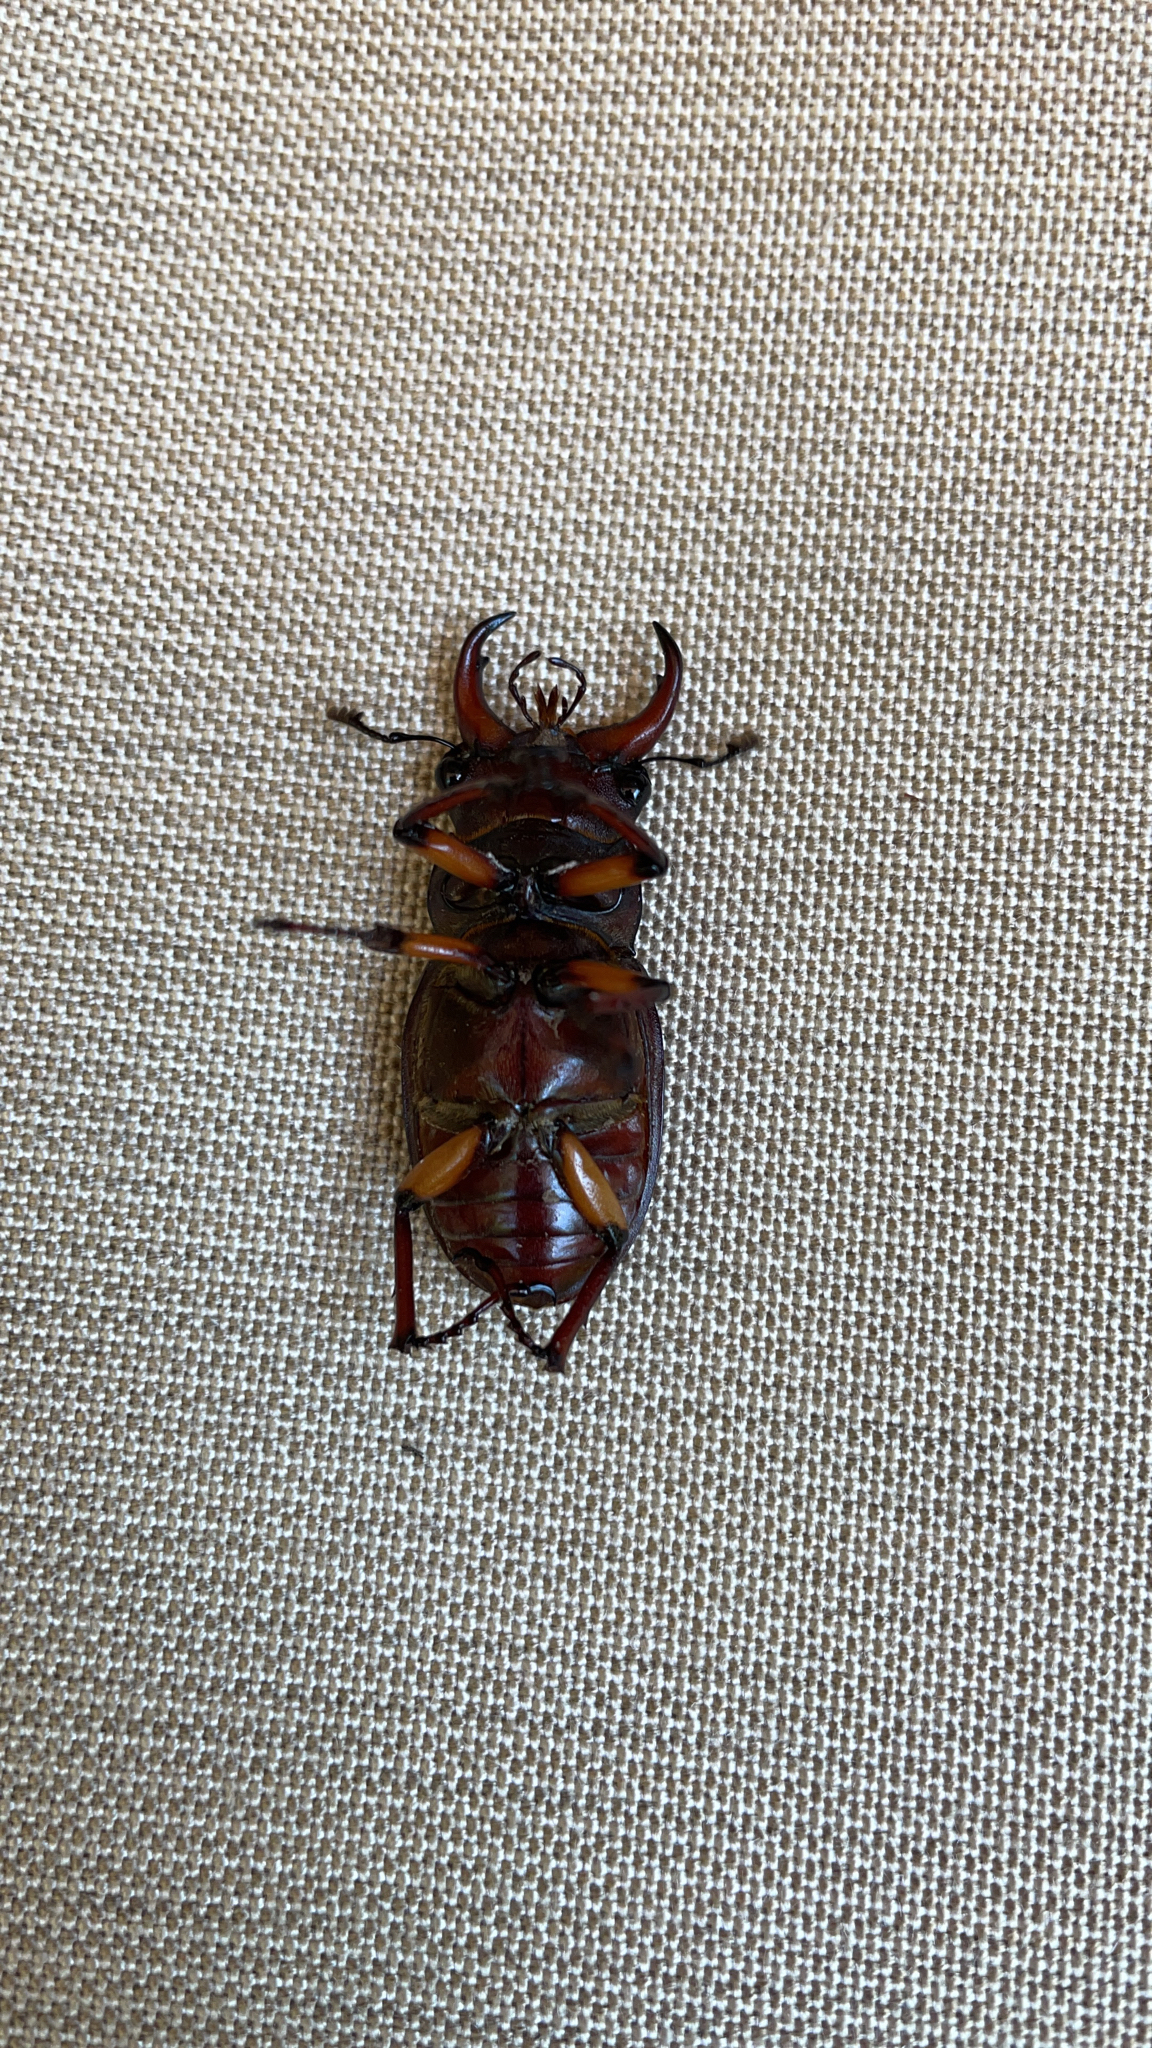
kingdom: Animalia
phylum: Arthropoda
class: Insecta
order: Coleoptera
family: Lucanidae
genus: Lucanus
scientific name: Lucanus capreolus
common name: Stag beetle
